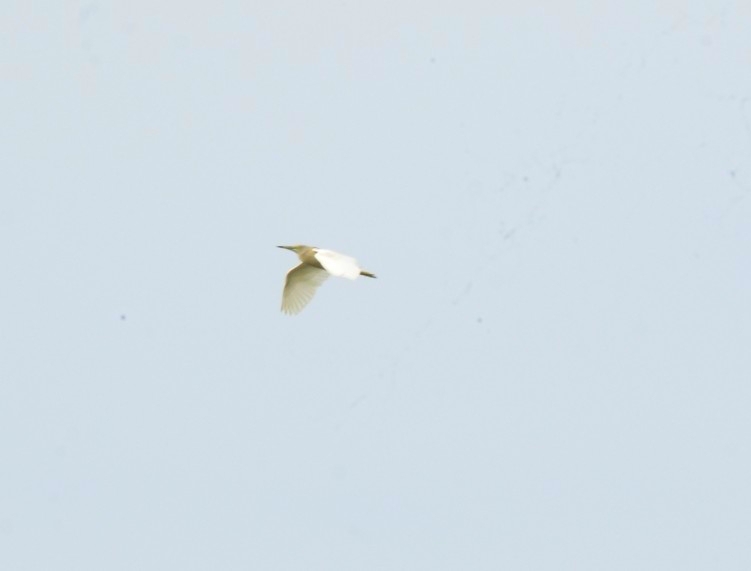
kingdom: Animalia
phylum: Chordata
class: Aves
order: Pelecaniformes
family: Ardeidae
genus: Ardeola
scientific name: Ardeola grayii
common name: Indian pond heron
